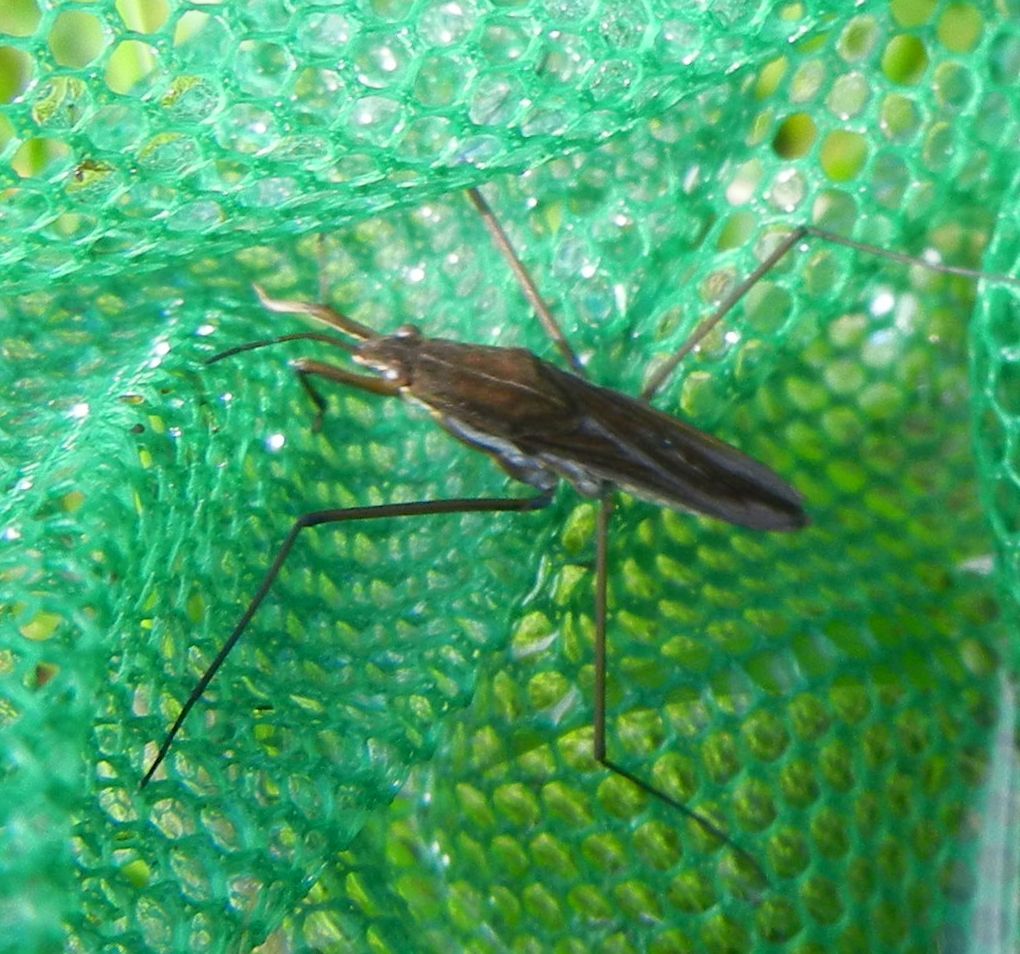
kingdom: Animalia
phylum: Arthropoda
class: Insecta
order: Hemiptera
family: Gerridae
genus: Gerris
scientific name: Gerris lacustris
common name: Common pondskater
